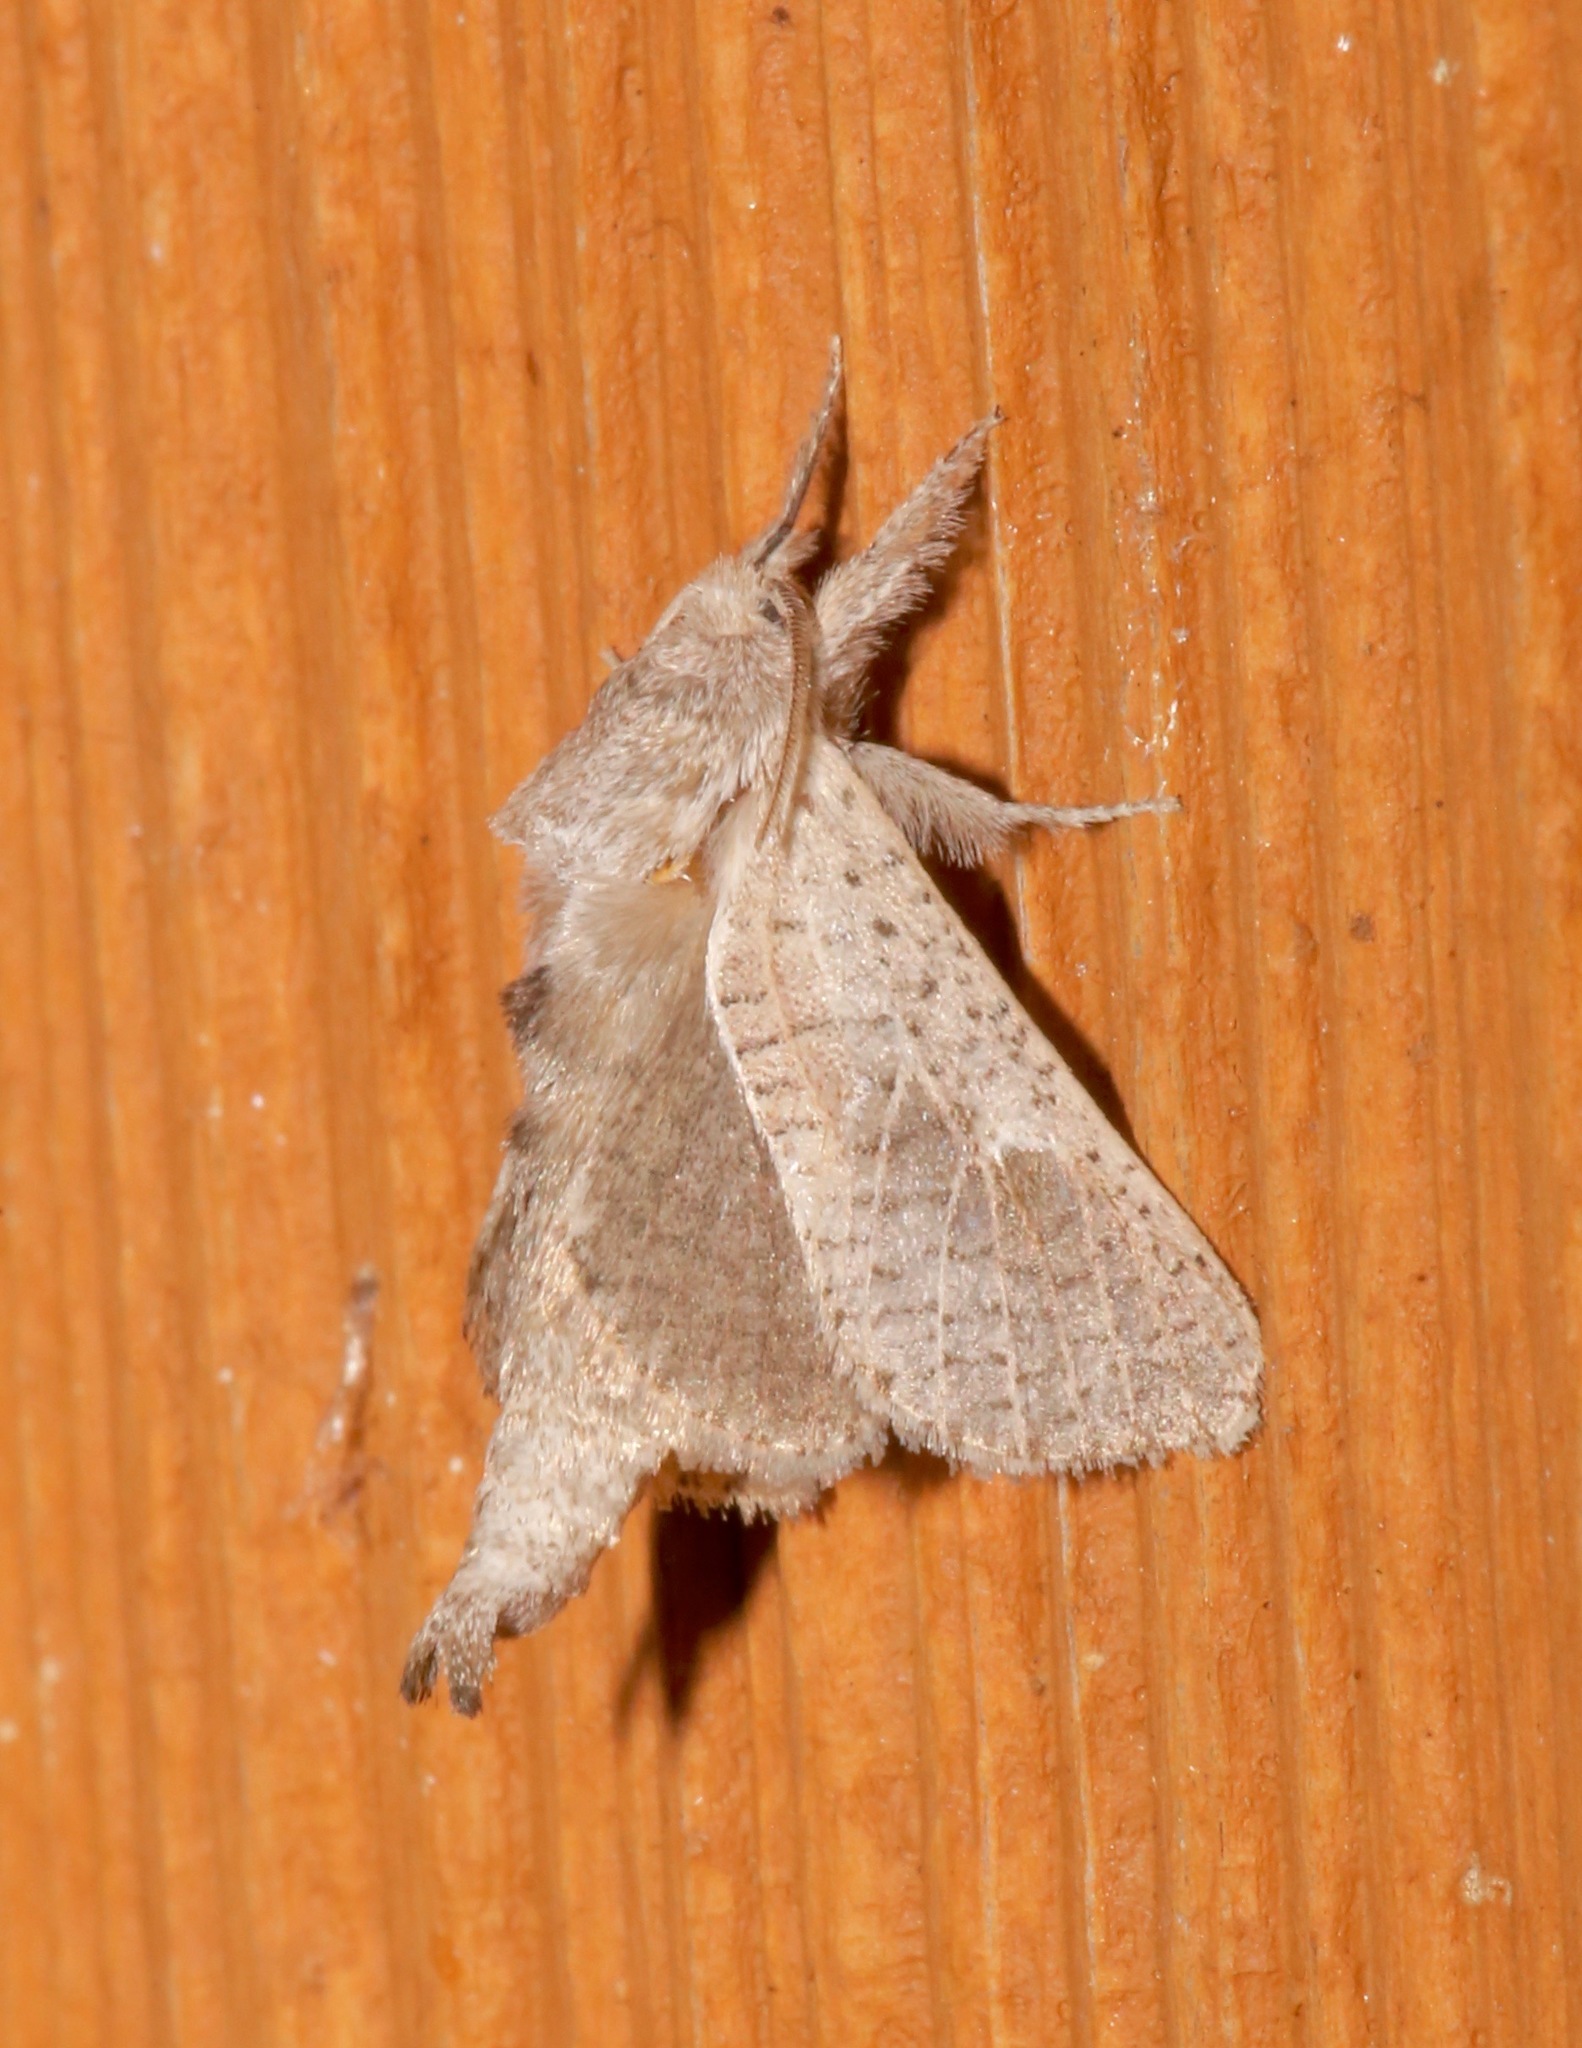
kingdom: Animalia
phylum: Arthropoda
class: Insecta
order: Lepidoptera
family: Cossidae
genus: Givira
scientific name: Givira anna
